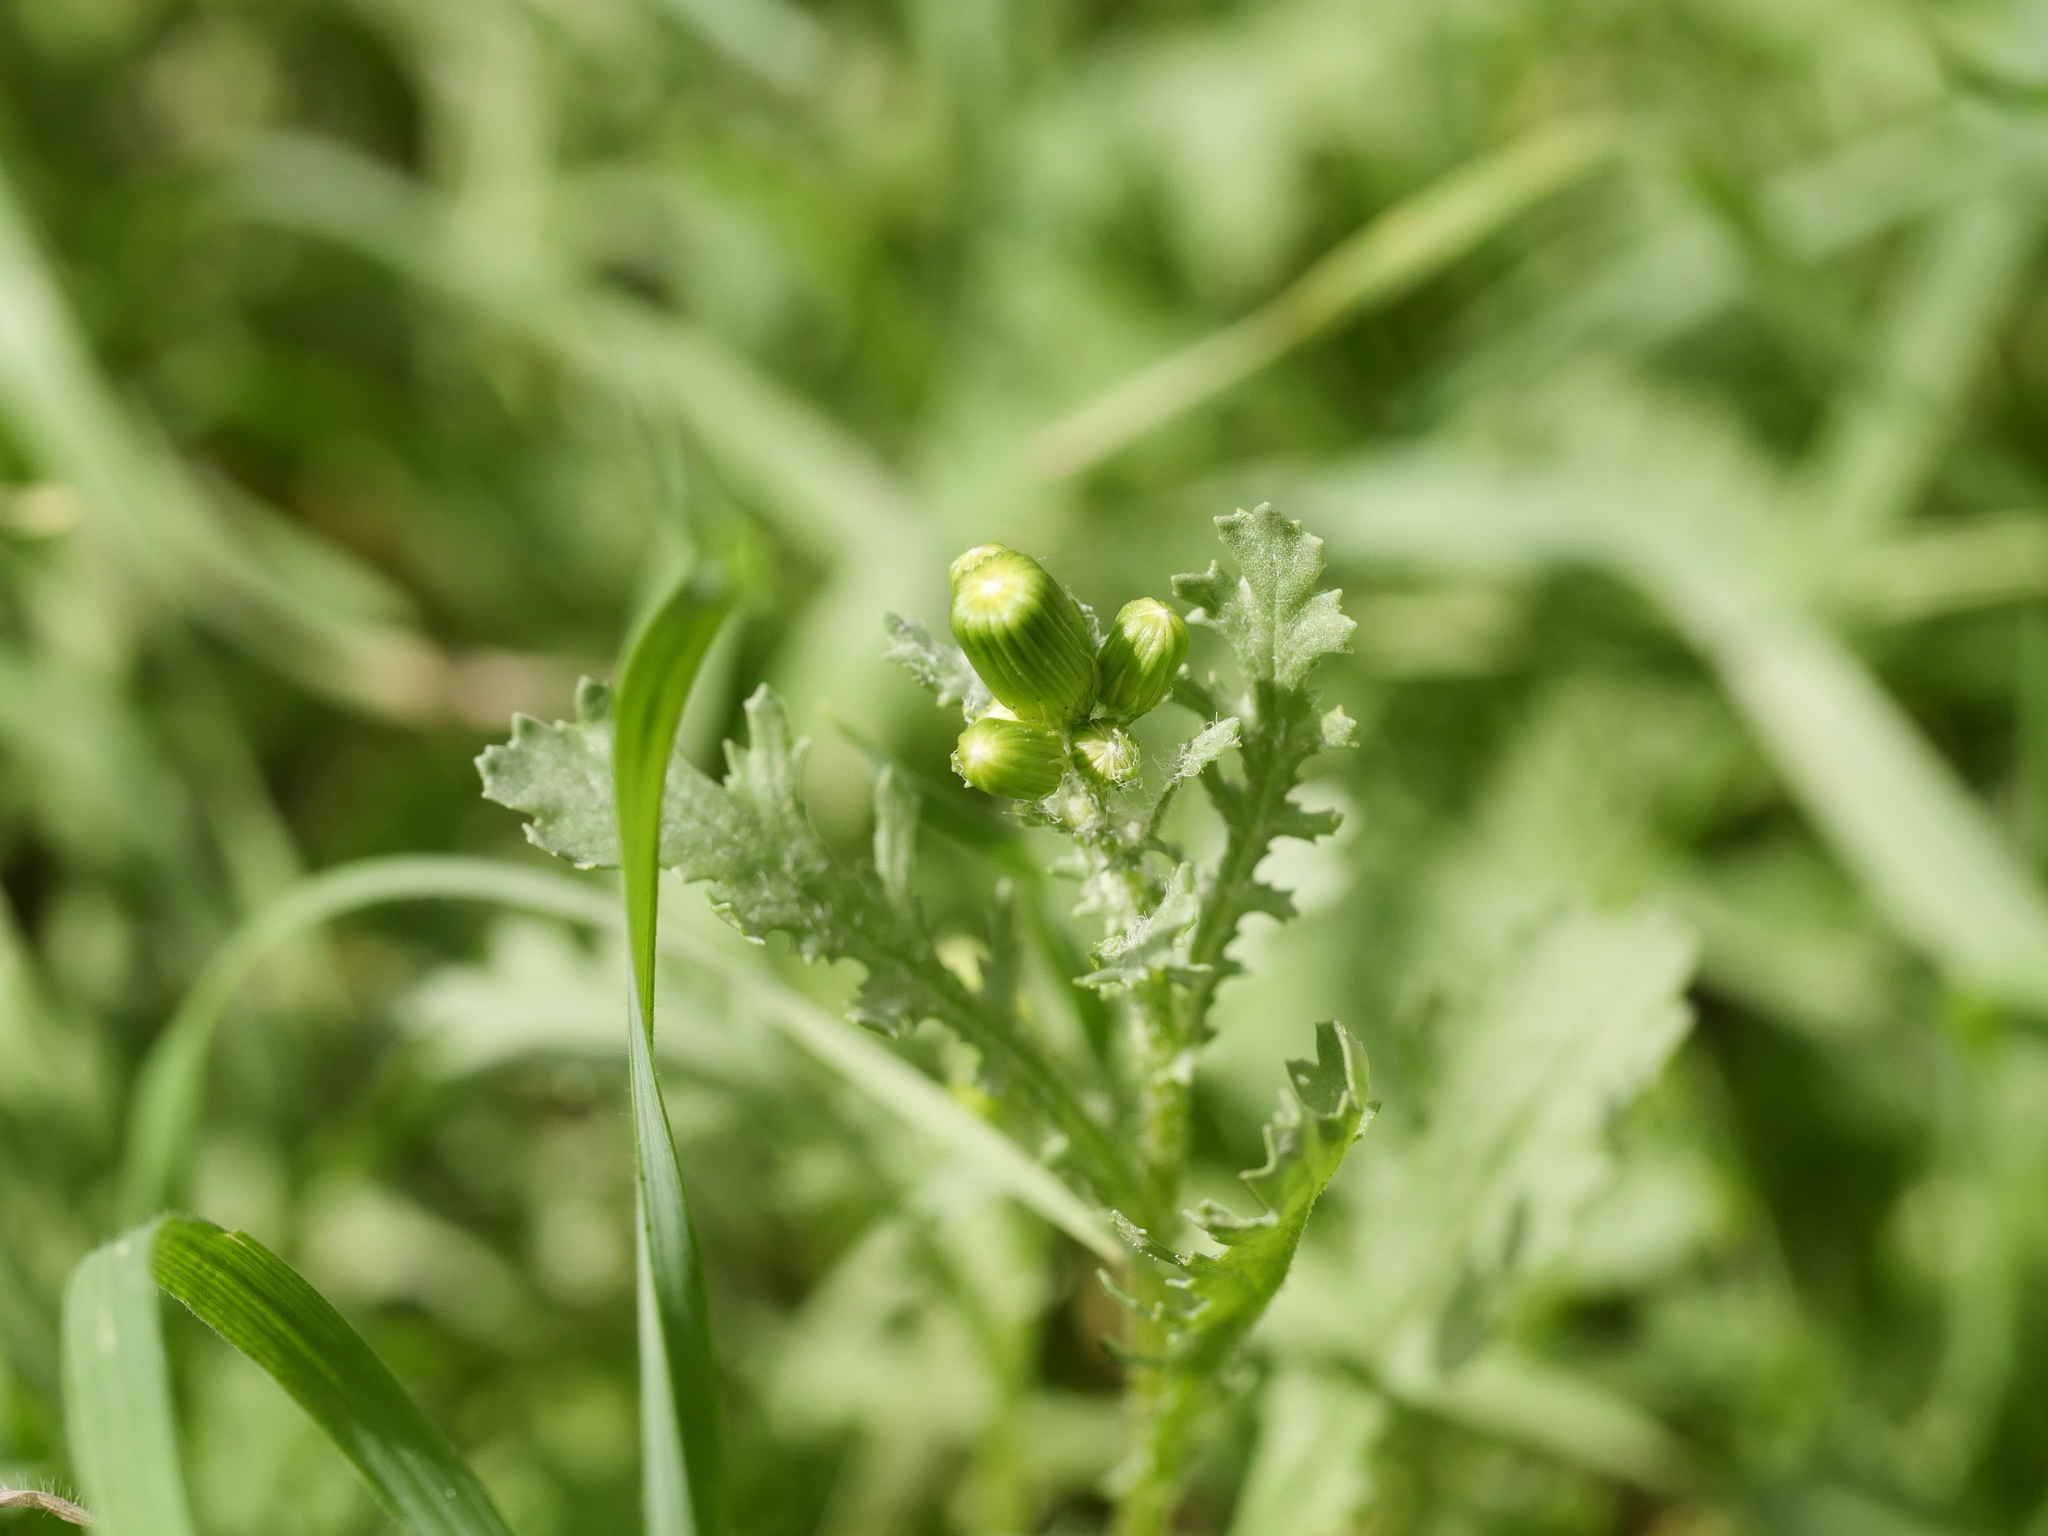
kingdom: Plantae
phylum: Tracheophyta
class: Magnoliopsida
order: Asterales
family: Asteraceae
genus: Senecio
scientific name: Senecio vulgaris
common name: Old-man-in-the-spring
